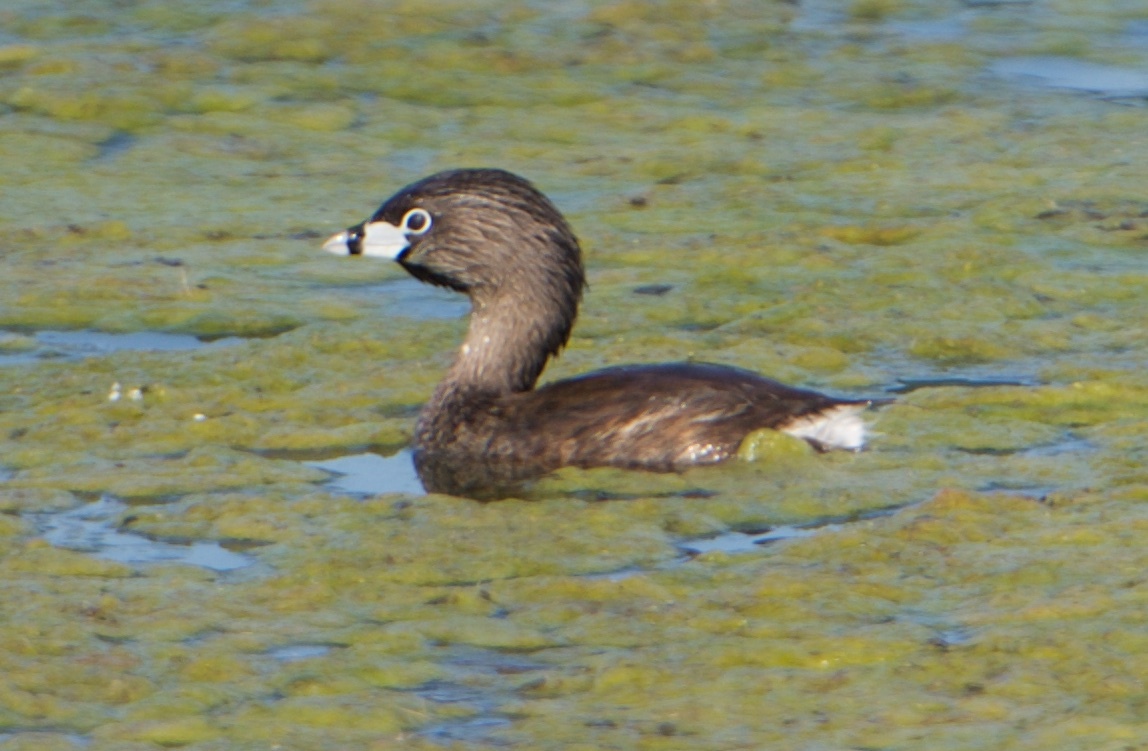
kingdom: Animalia
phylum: Chordata
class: Aves
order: Podicipediformes
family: Podicipedidae
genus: Podilymbus
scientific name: Podilymbus podiceps
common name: Pied-billed grebe
